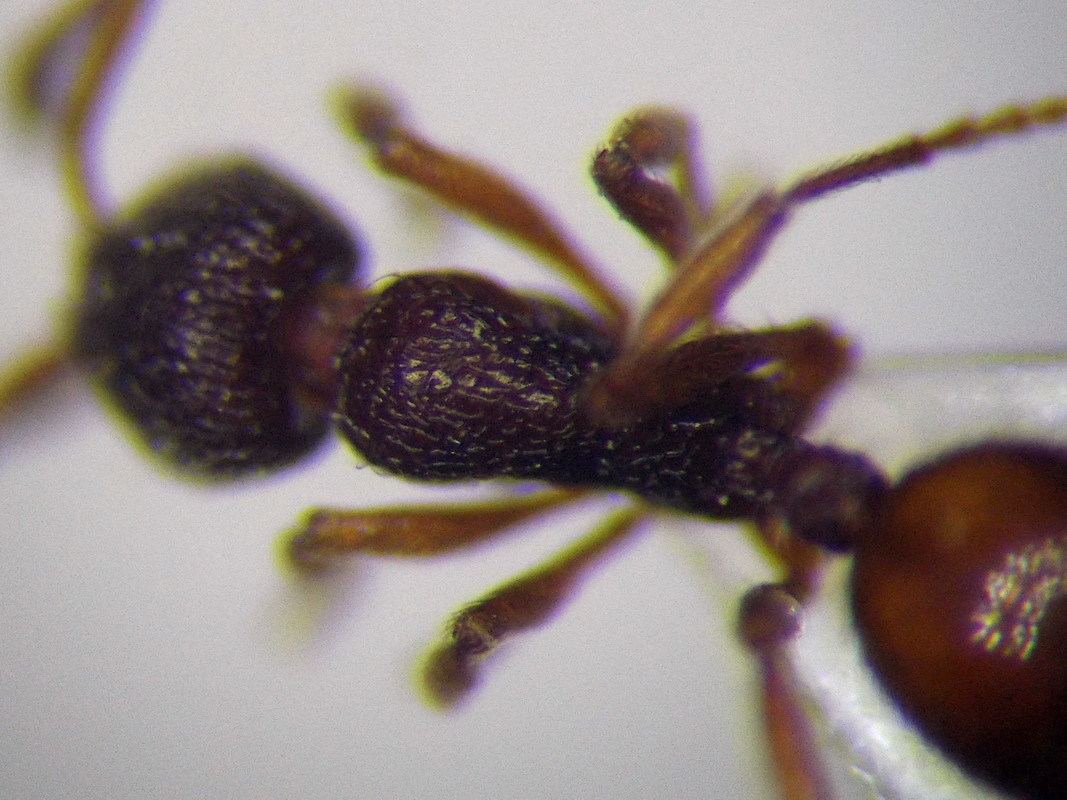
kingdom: Animalia
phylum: Arthropoda
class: Insecta
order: Hymenoptera
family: Formicidae
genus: Stenamma
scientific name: Stenamma debile
